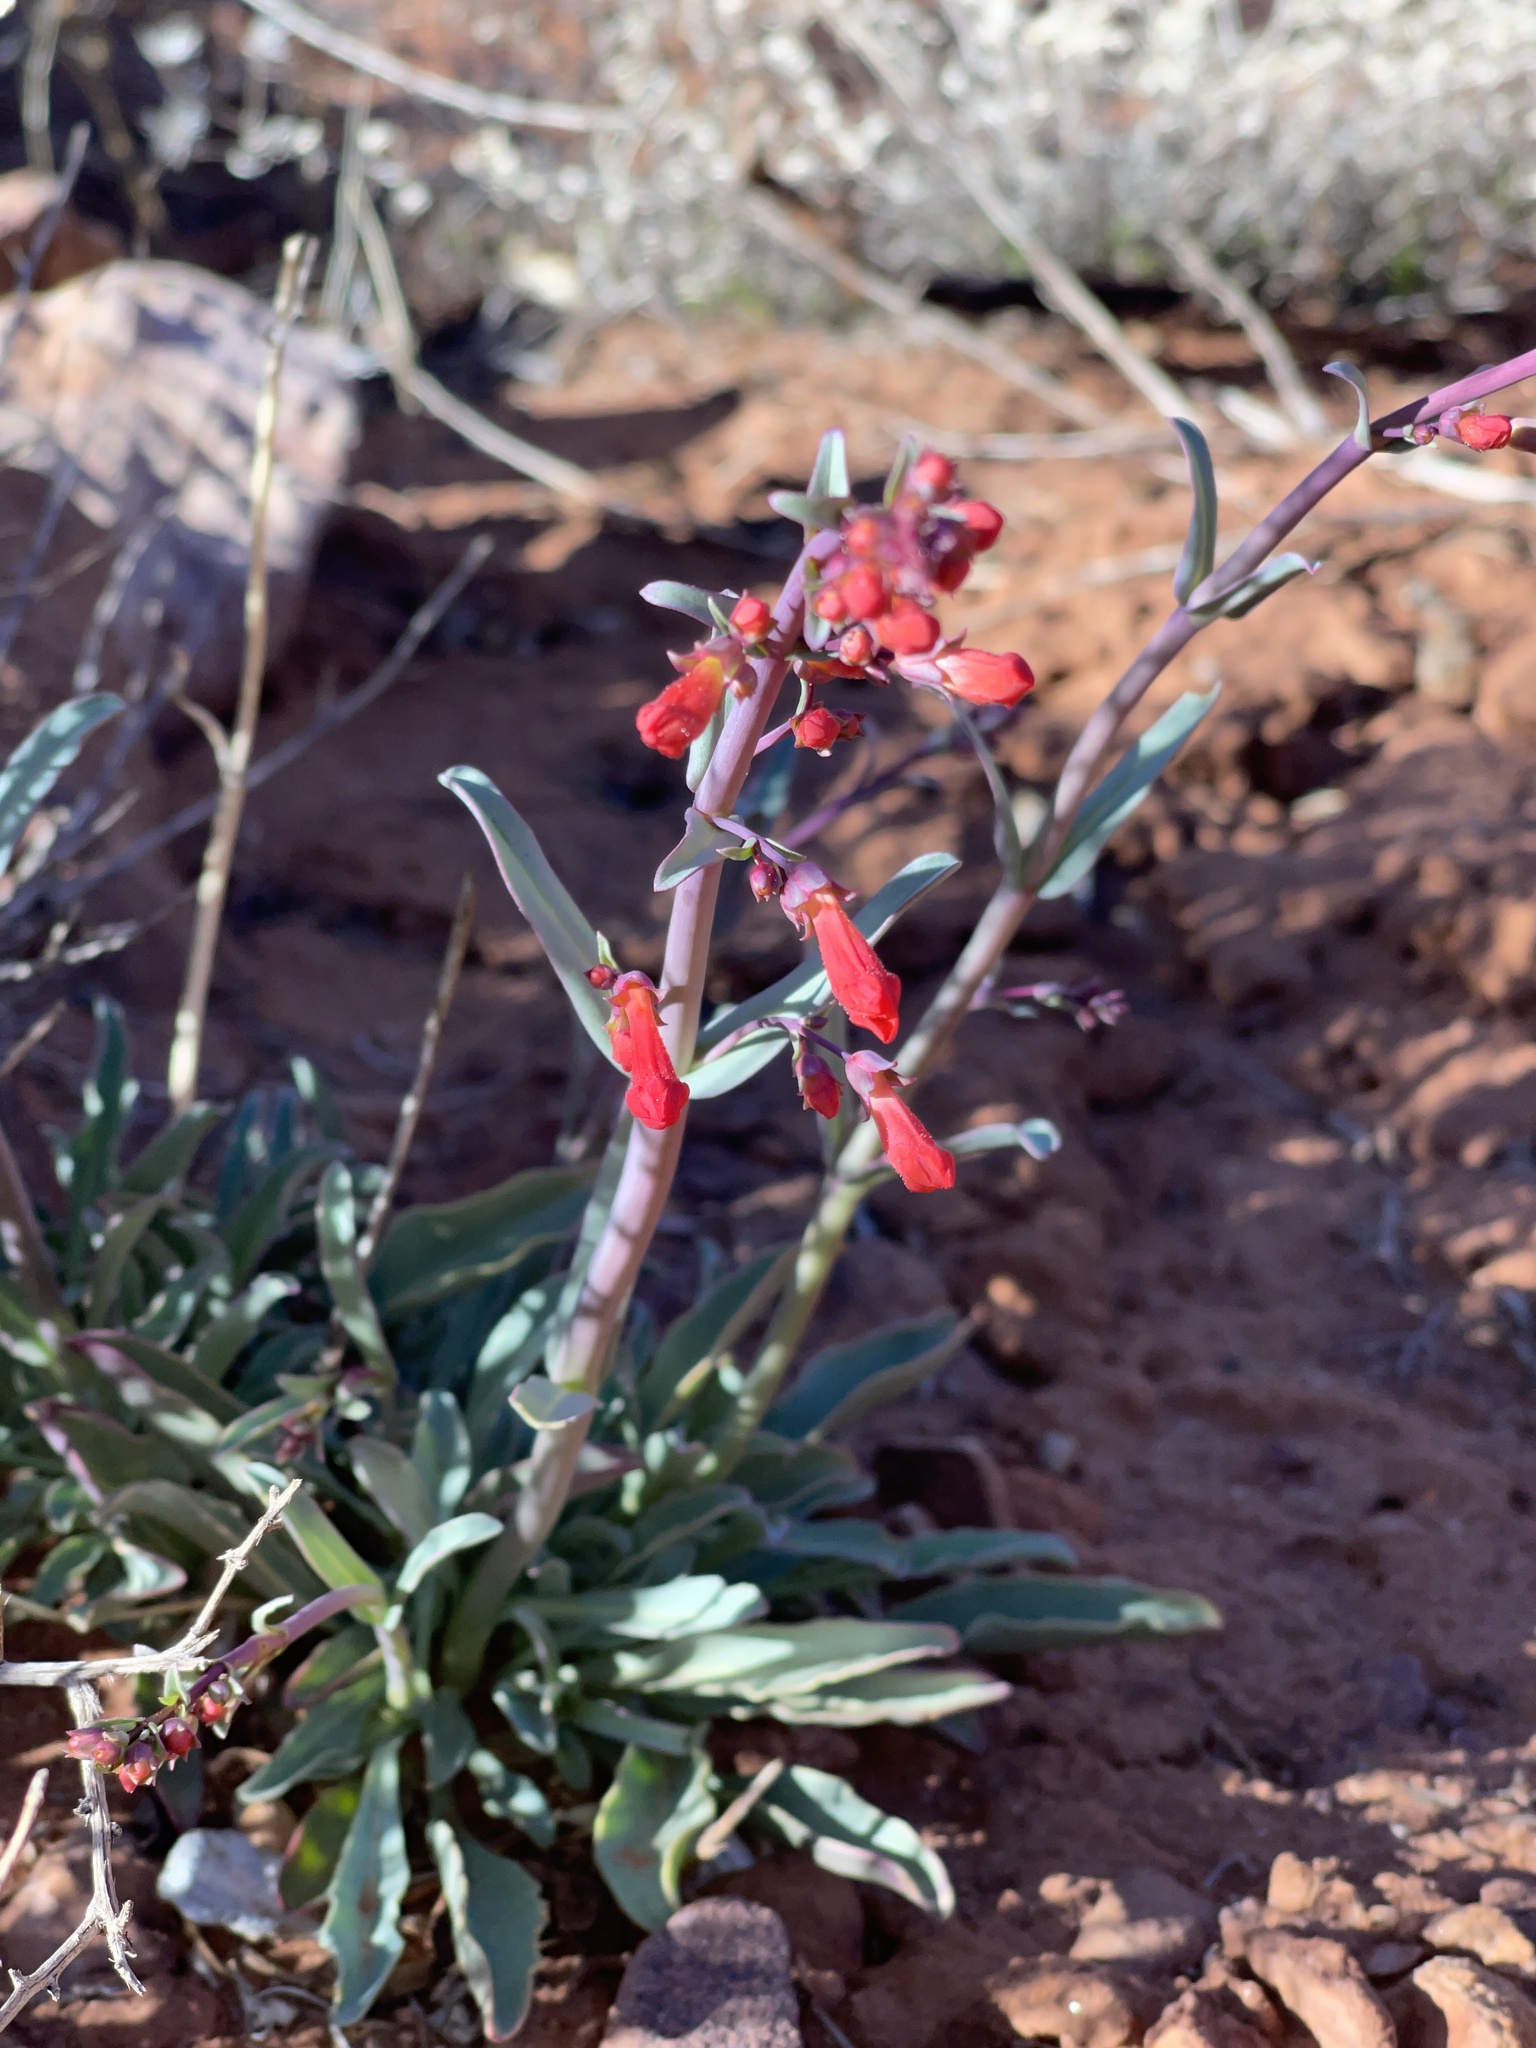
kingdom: Plantae
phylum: Tracheophyta
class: Magnoliopsida
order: Lamiales
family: Plantaginaceae
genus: Penstemon
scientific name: Penstemon utahensis
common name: Utah penstemon
